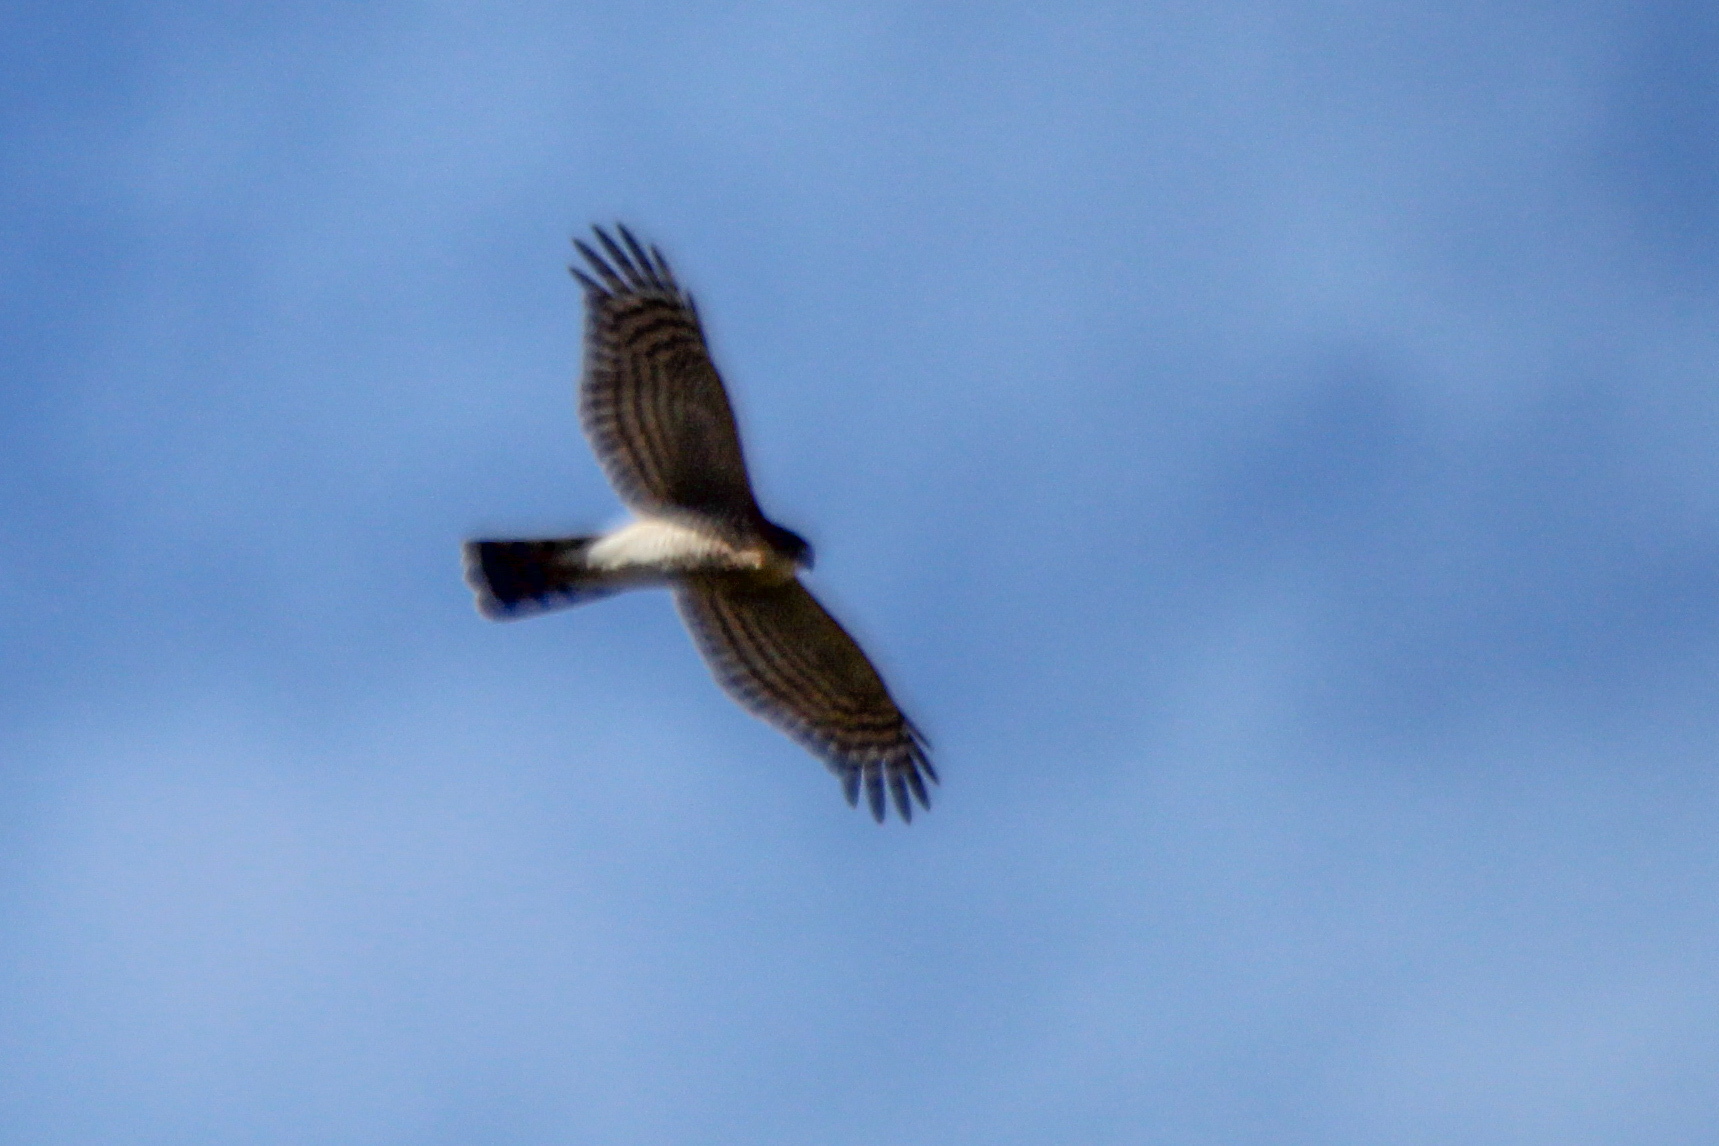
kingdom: Animalia
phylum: Chordata
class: Aves
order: Accipitriformes
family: Accipitridae
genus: Accipiter
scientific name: Accipiter nisus
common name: Eurasian sparrowhawk
